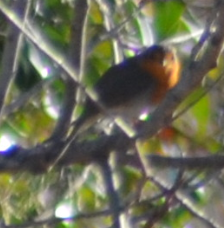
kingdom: Animalia
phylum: Chordata
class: Aves
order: Passeriformes
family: Muscicapidae
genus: Erithacus
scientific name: Erithacus rubecula
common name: European robin
